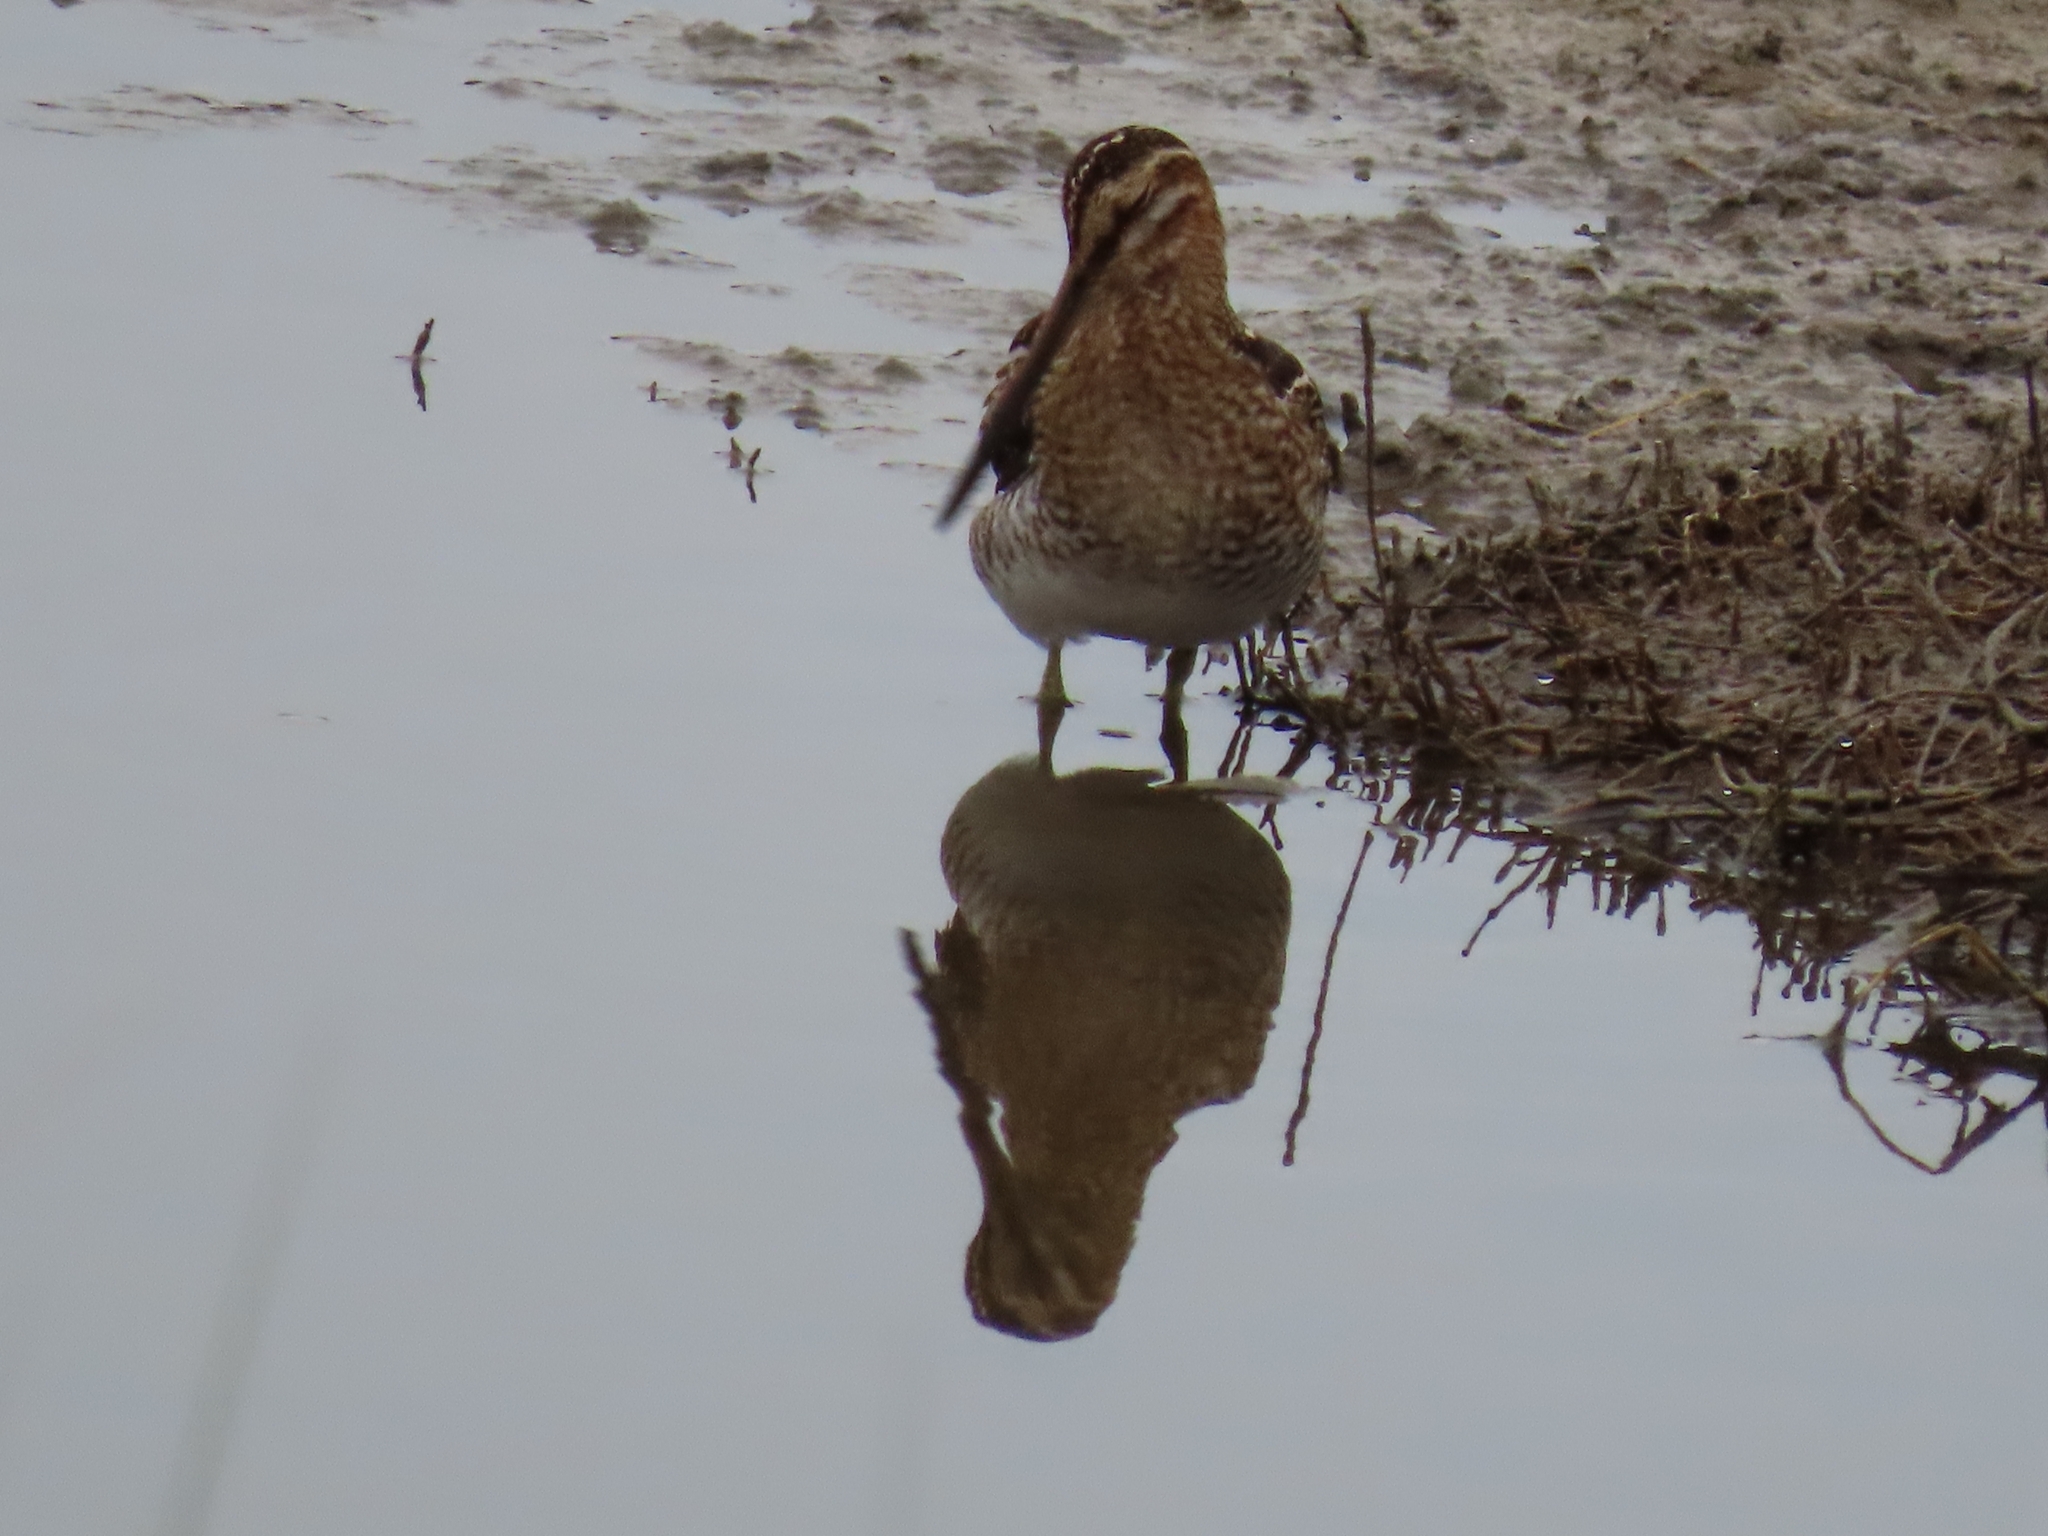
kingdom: Animalia
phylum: Chordata
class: Aves
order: Charadriiformes
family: Scolopacidae
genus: Gallinago
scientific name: Gallinago delicata
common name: Wilson's snipe
